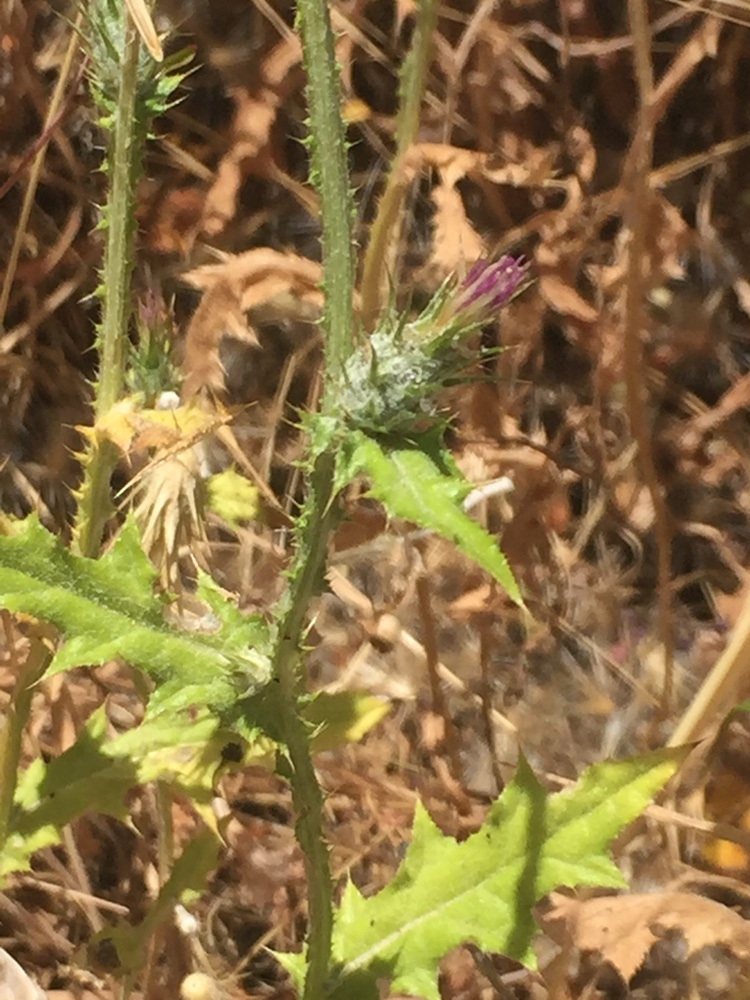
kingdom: Plantae
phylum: Tracheophyta
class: Magnoliopsida
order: Asterales
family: Asteraceae
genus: Carduus
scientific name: Carduus pycnocephalus
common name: Plymouth thistle
